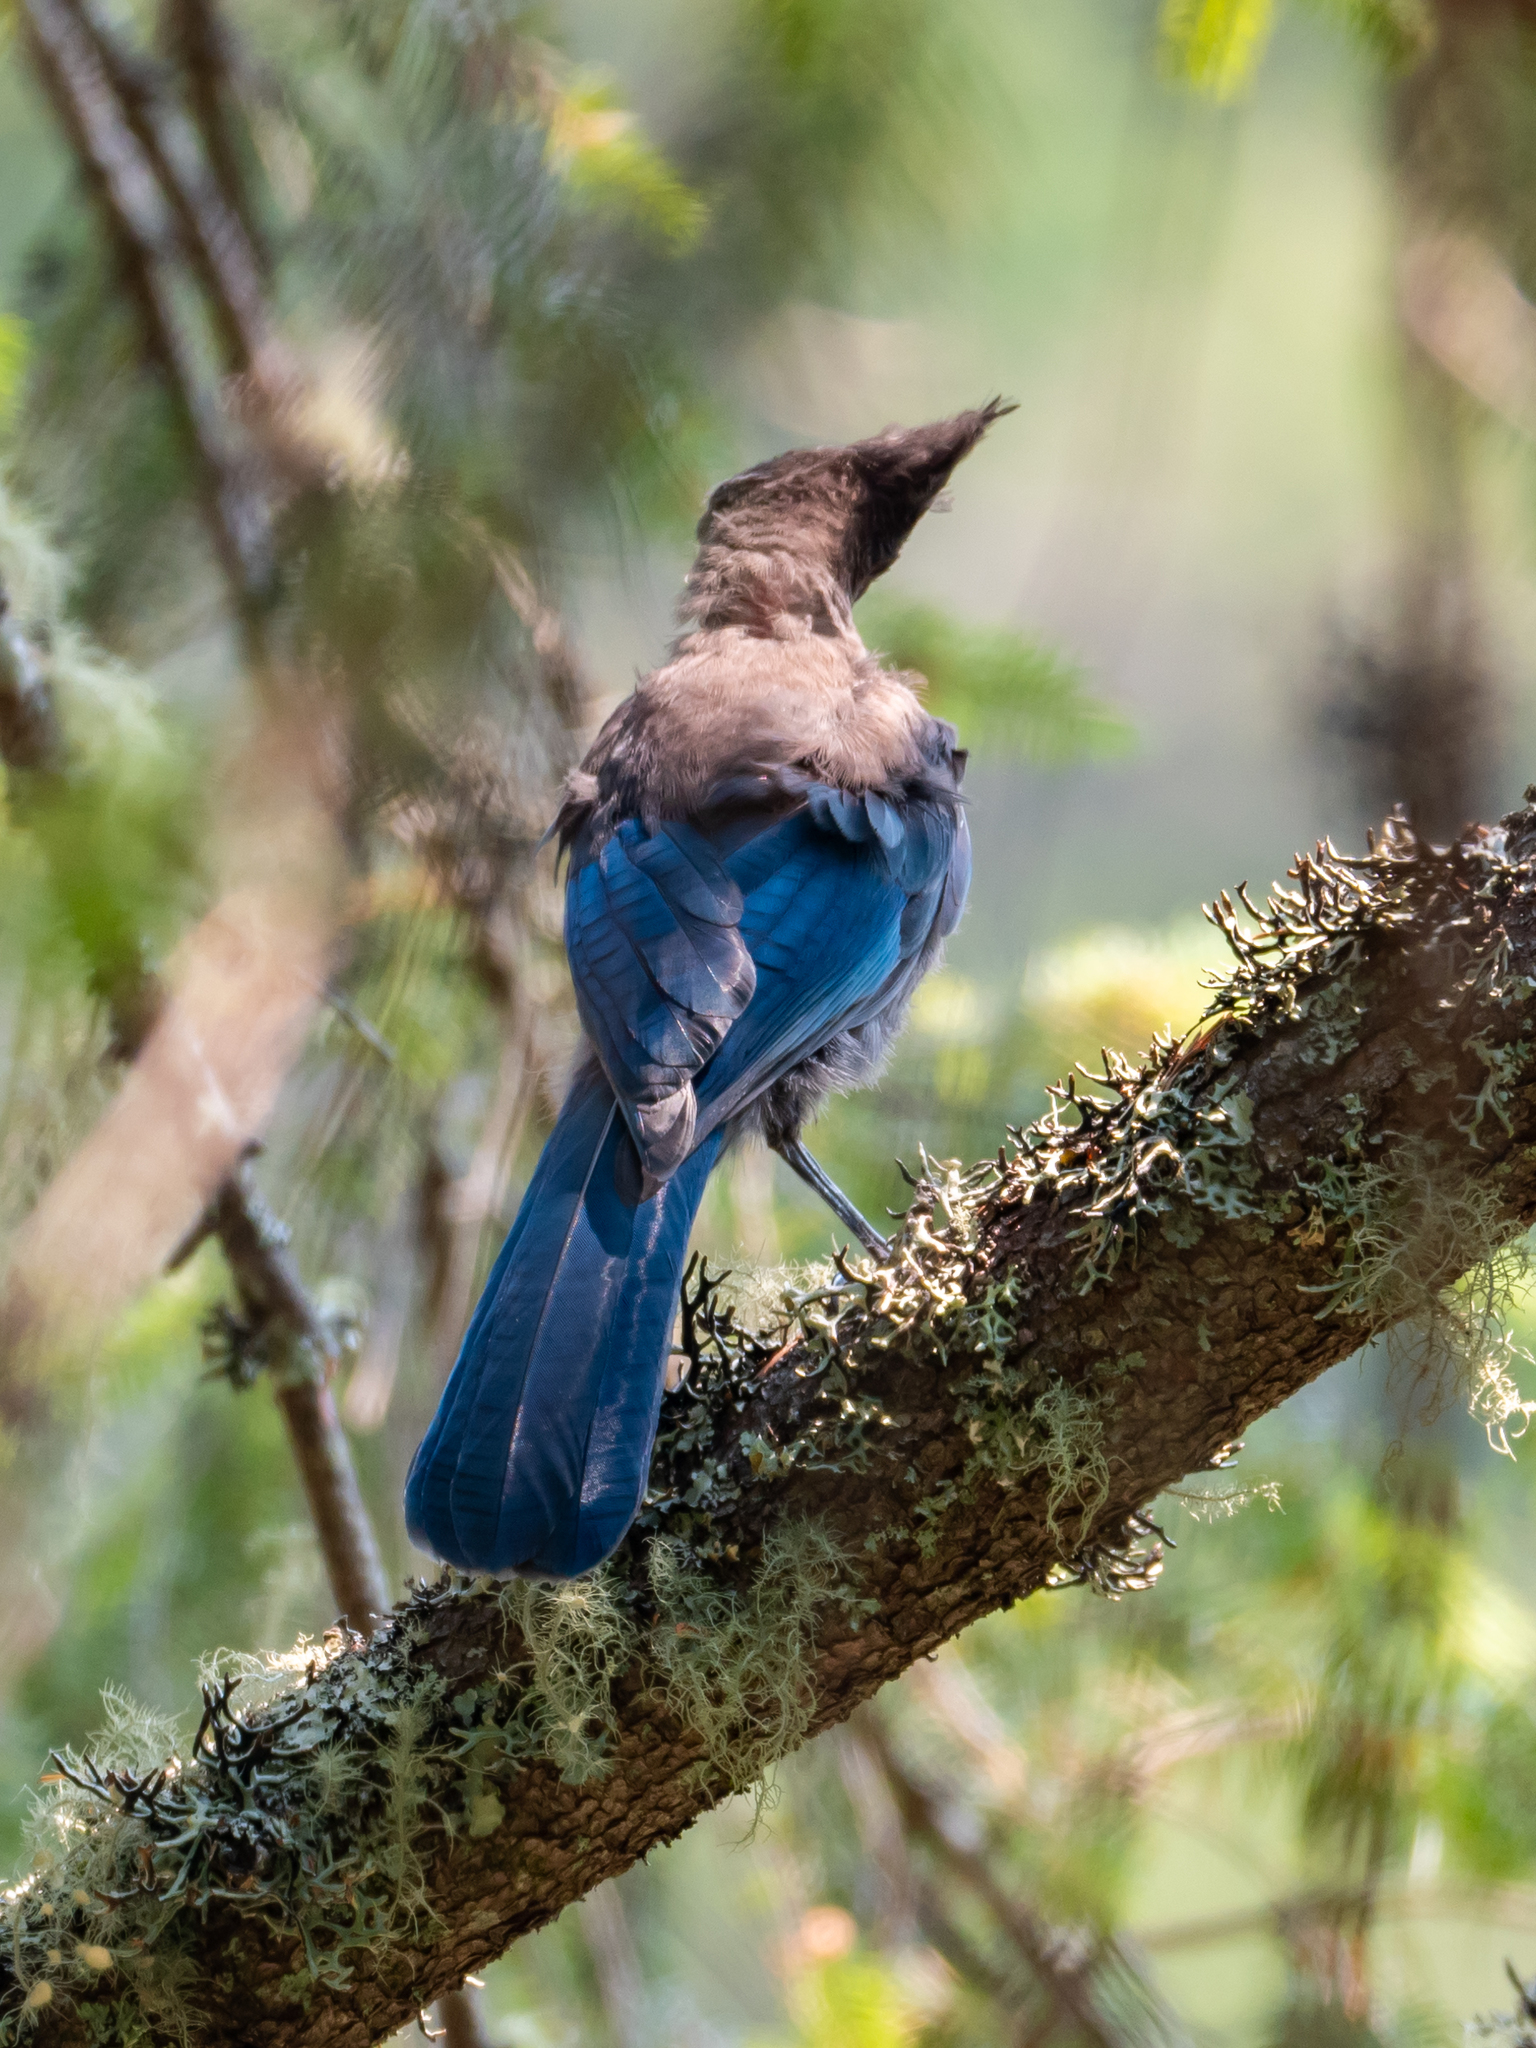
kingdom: Animalia
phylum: Chordata
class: Aves
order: Passeriformes
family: Corvidae
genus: Cyanocitta
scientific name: Cyanocitta stelleri
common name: Steller's jay
